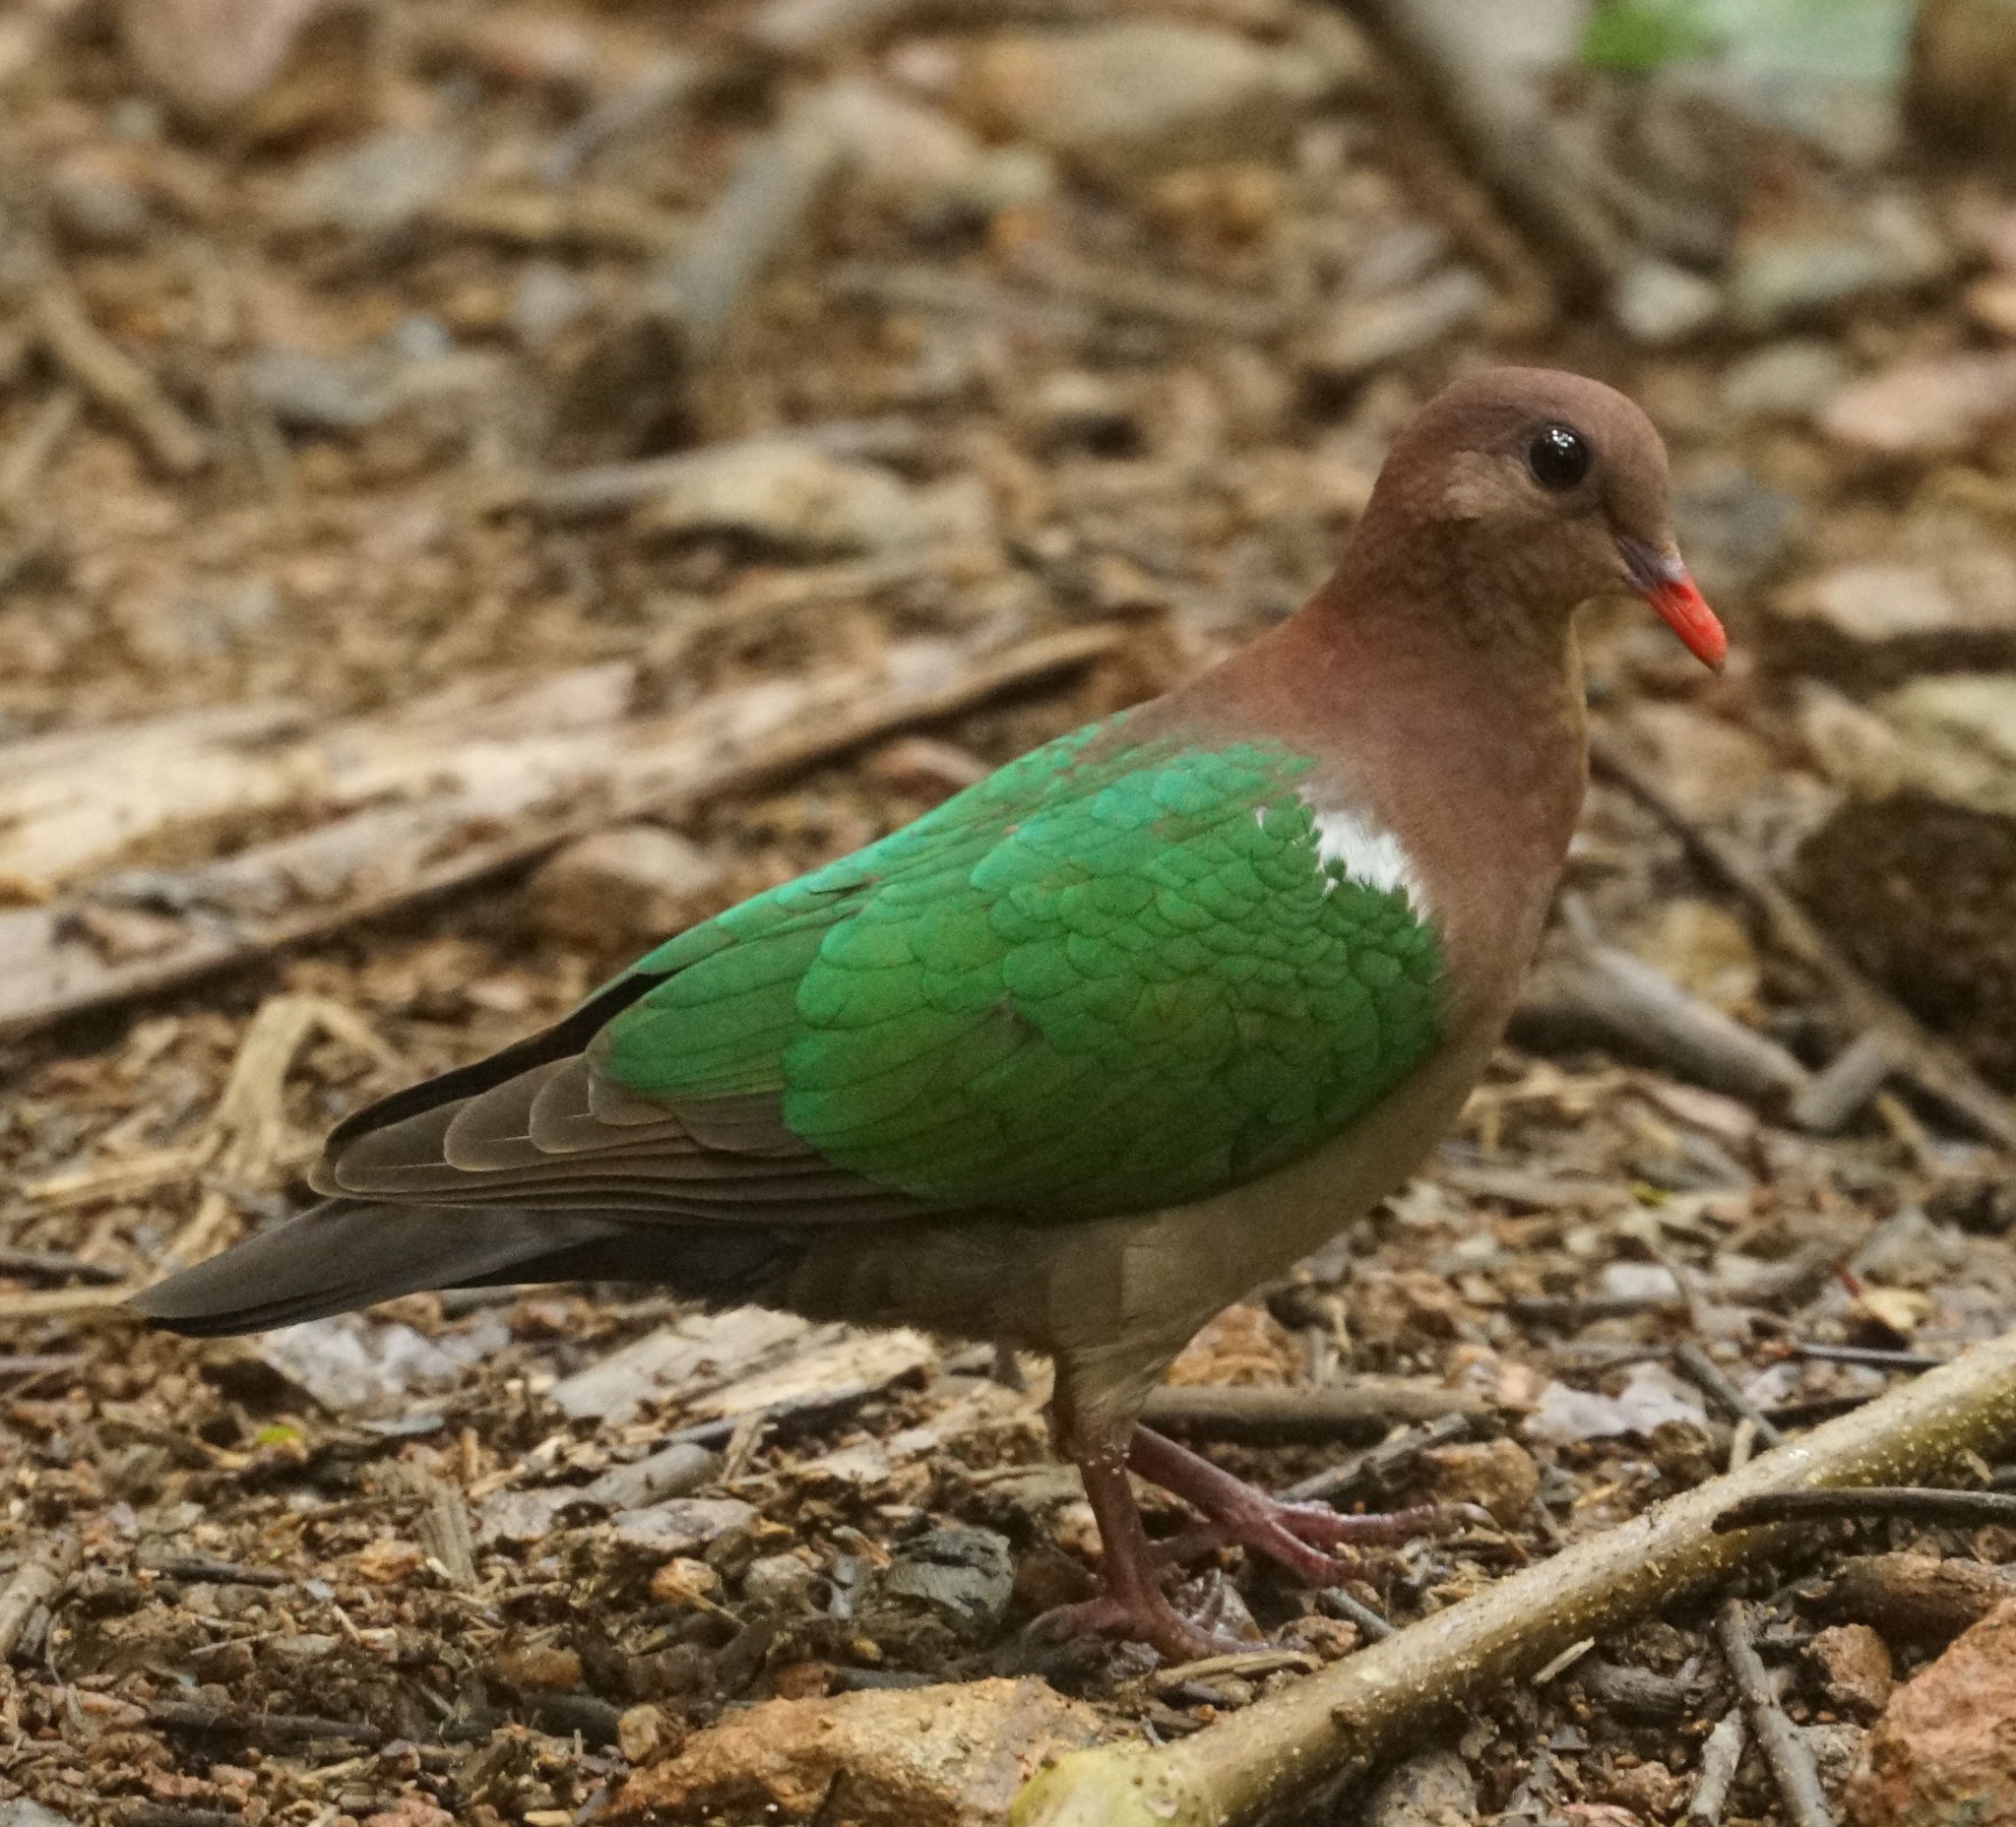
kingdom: Animalia
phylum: Chordata
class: Aves
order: Columbiformes
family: Columbidae
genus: Chalcophaps
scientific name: Chalcophaps longirostris
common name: Pacific emerald dove
